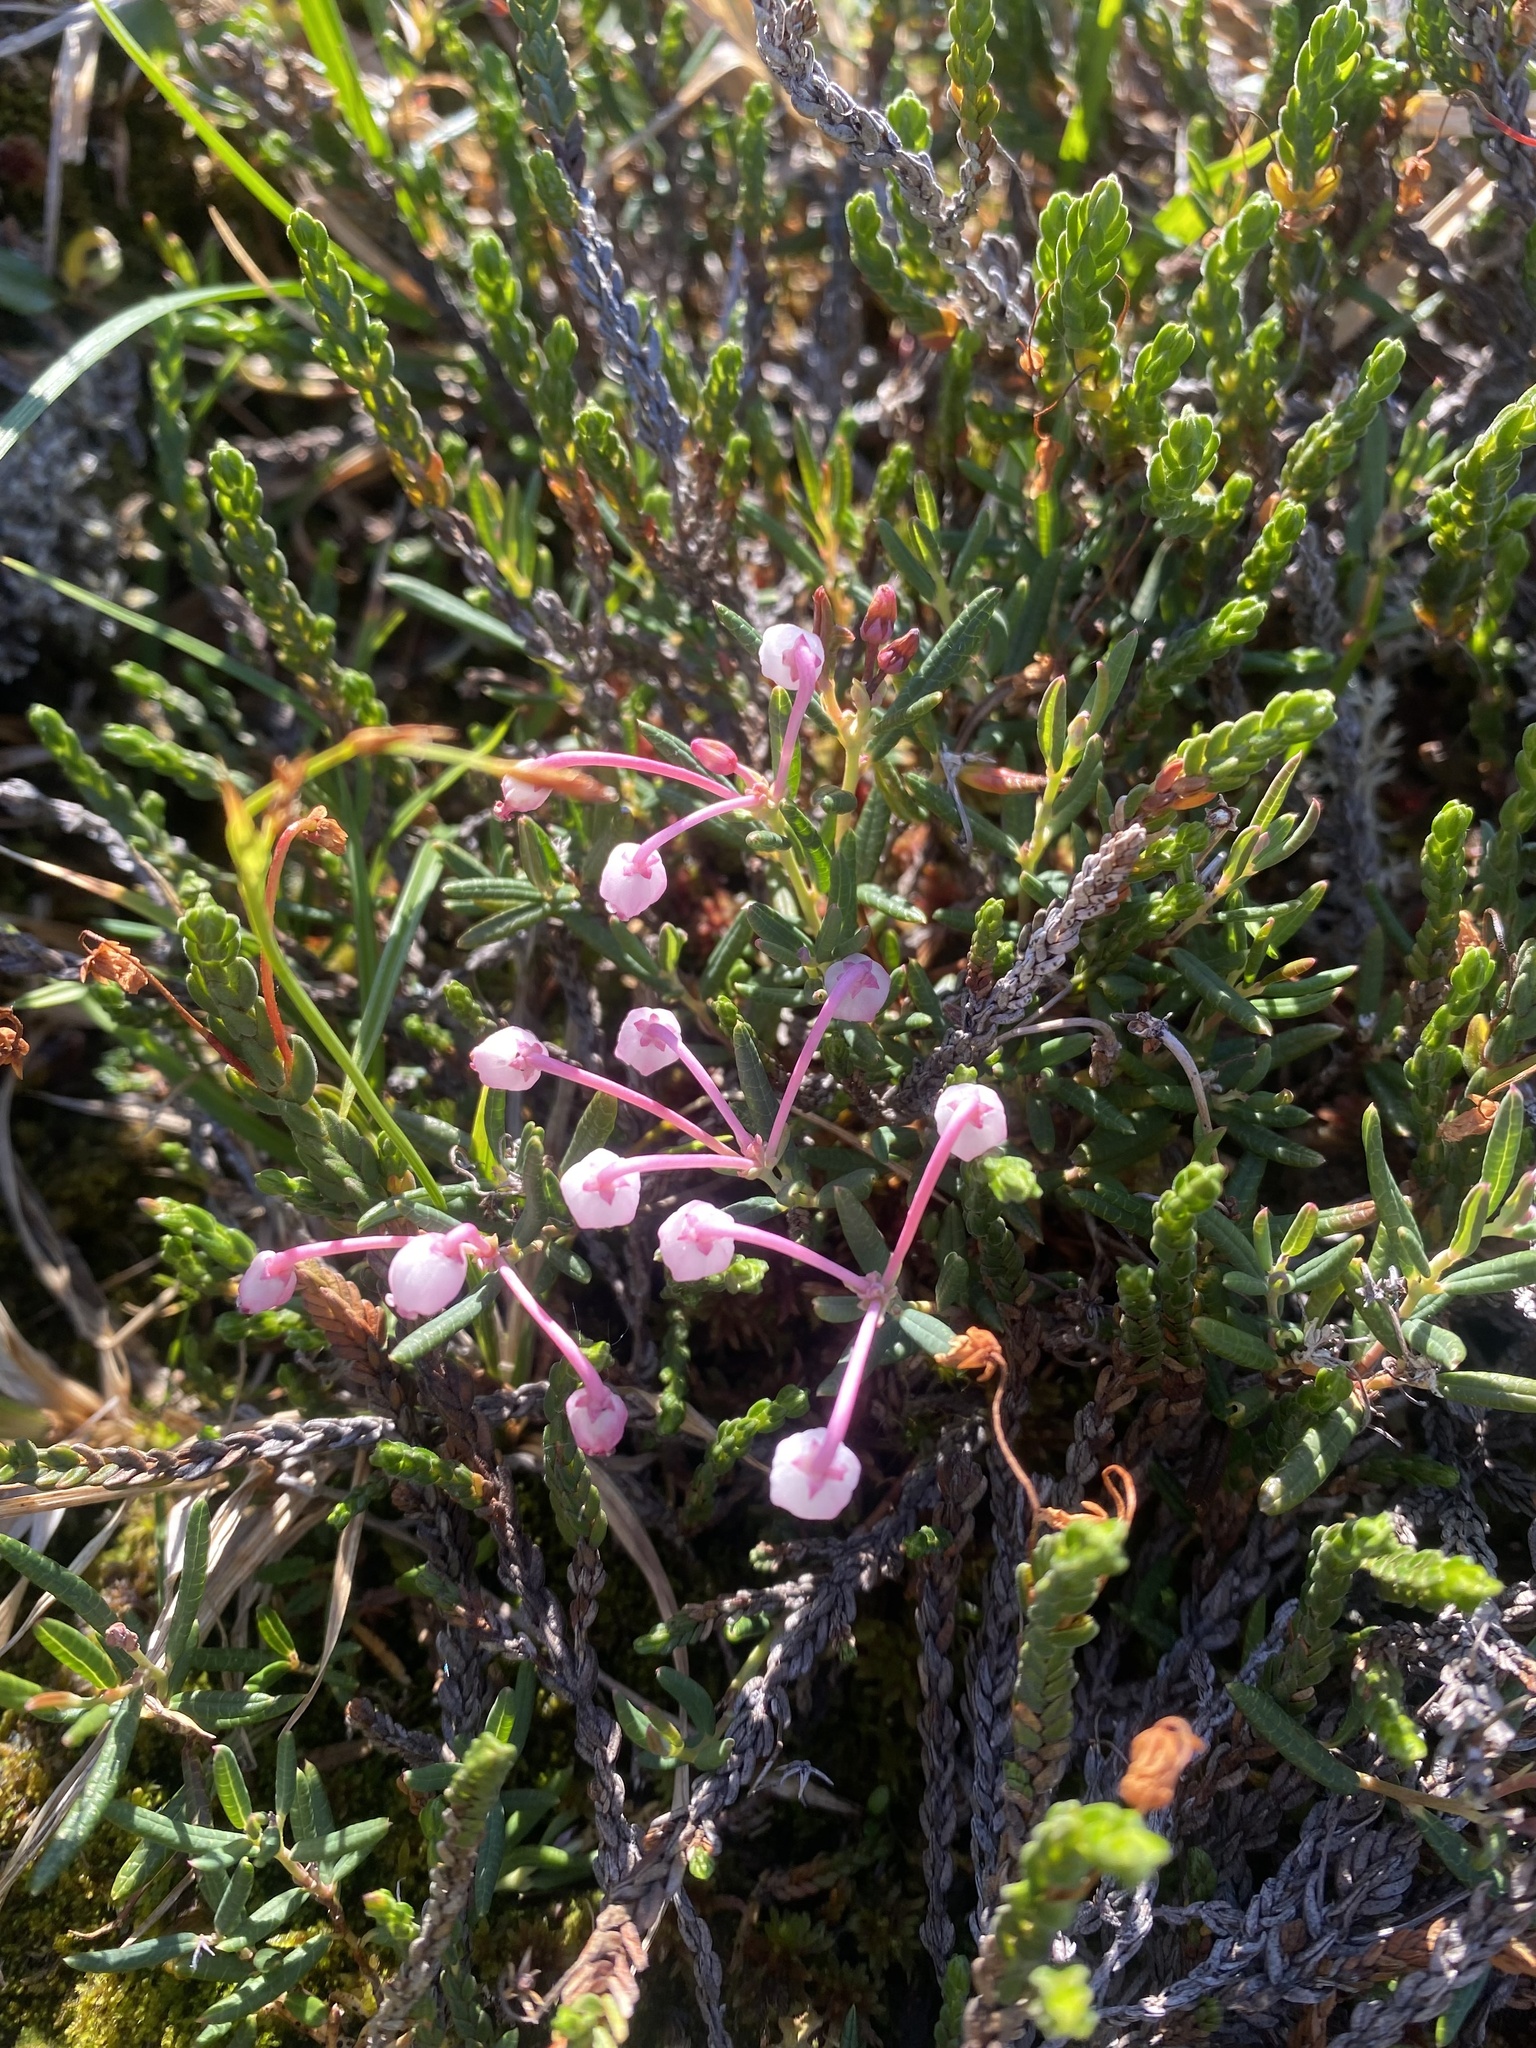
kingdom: Plantae
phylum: Tracheophyta
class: Magnoliopsida
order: Ericales
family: Ericaceae
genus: Andromeda
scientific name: Andromeda polifolia
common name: Bog-rosemary
